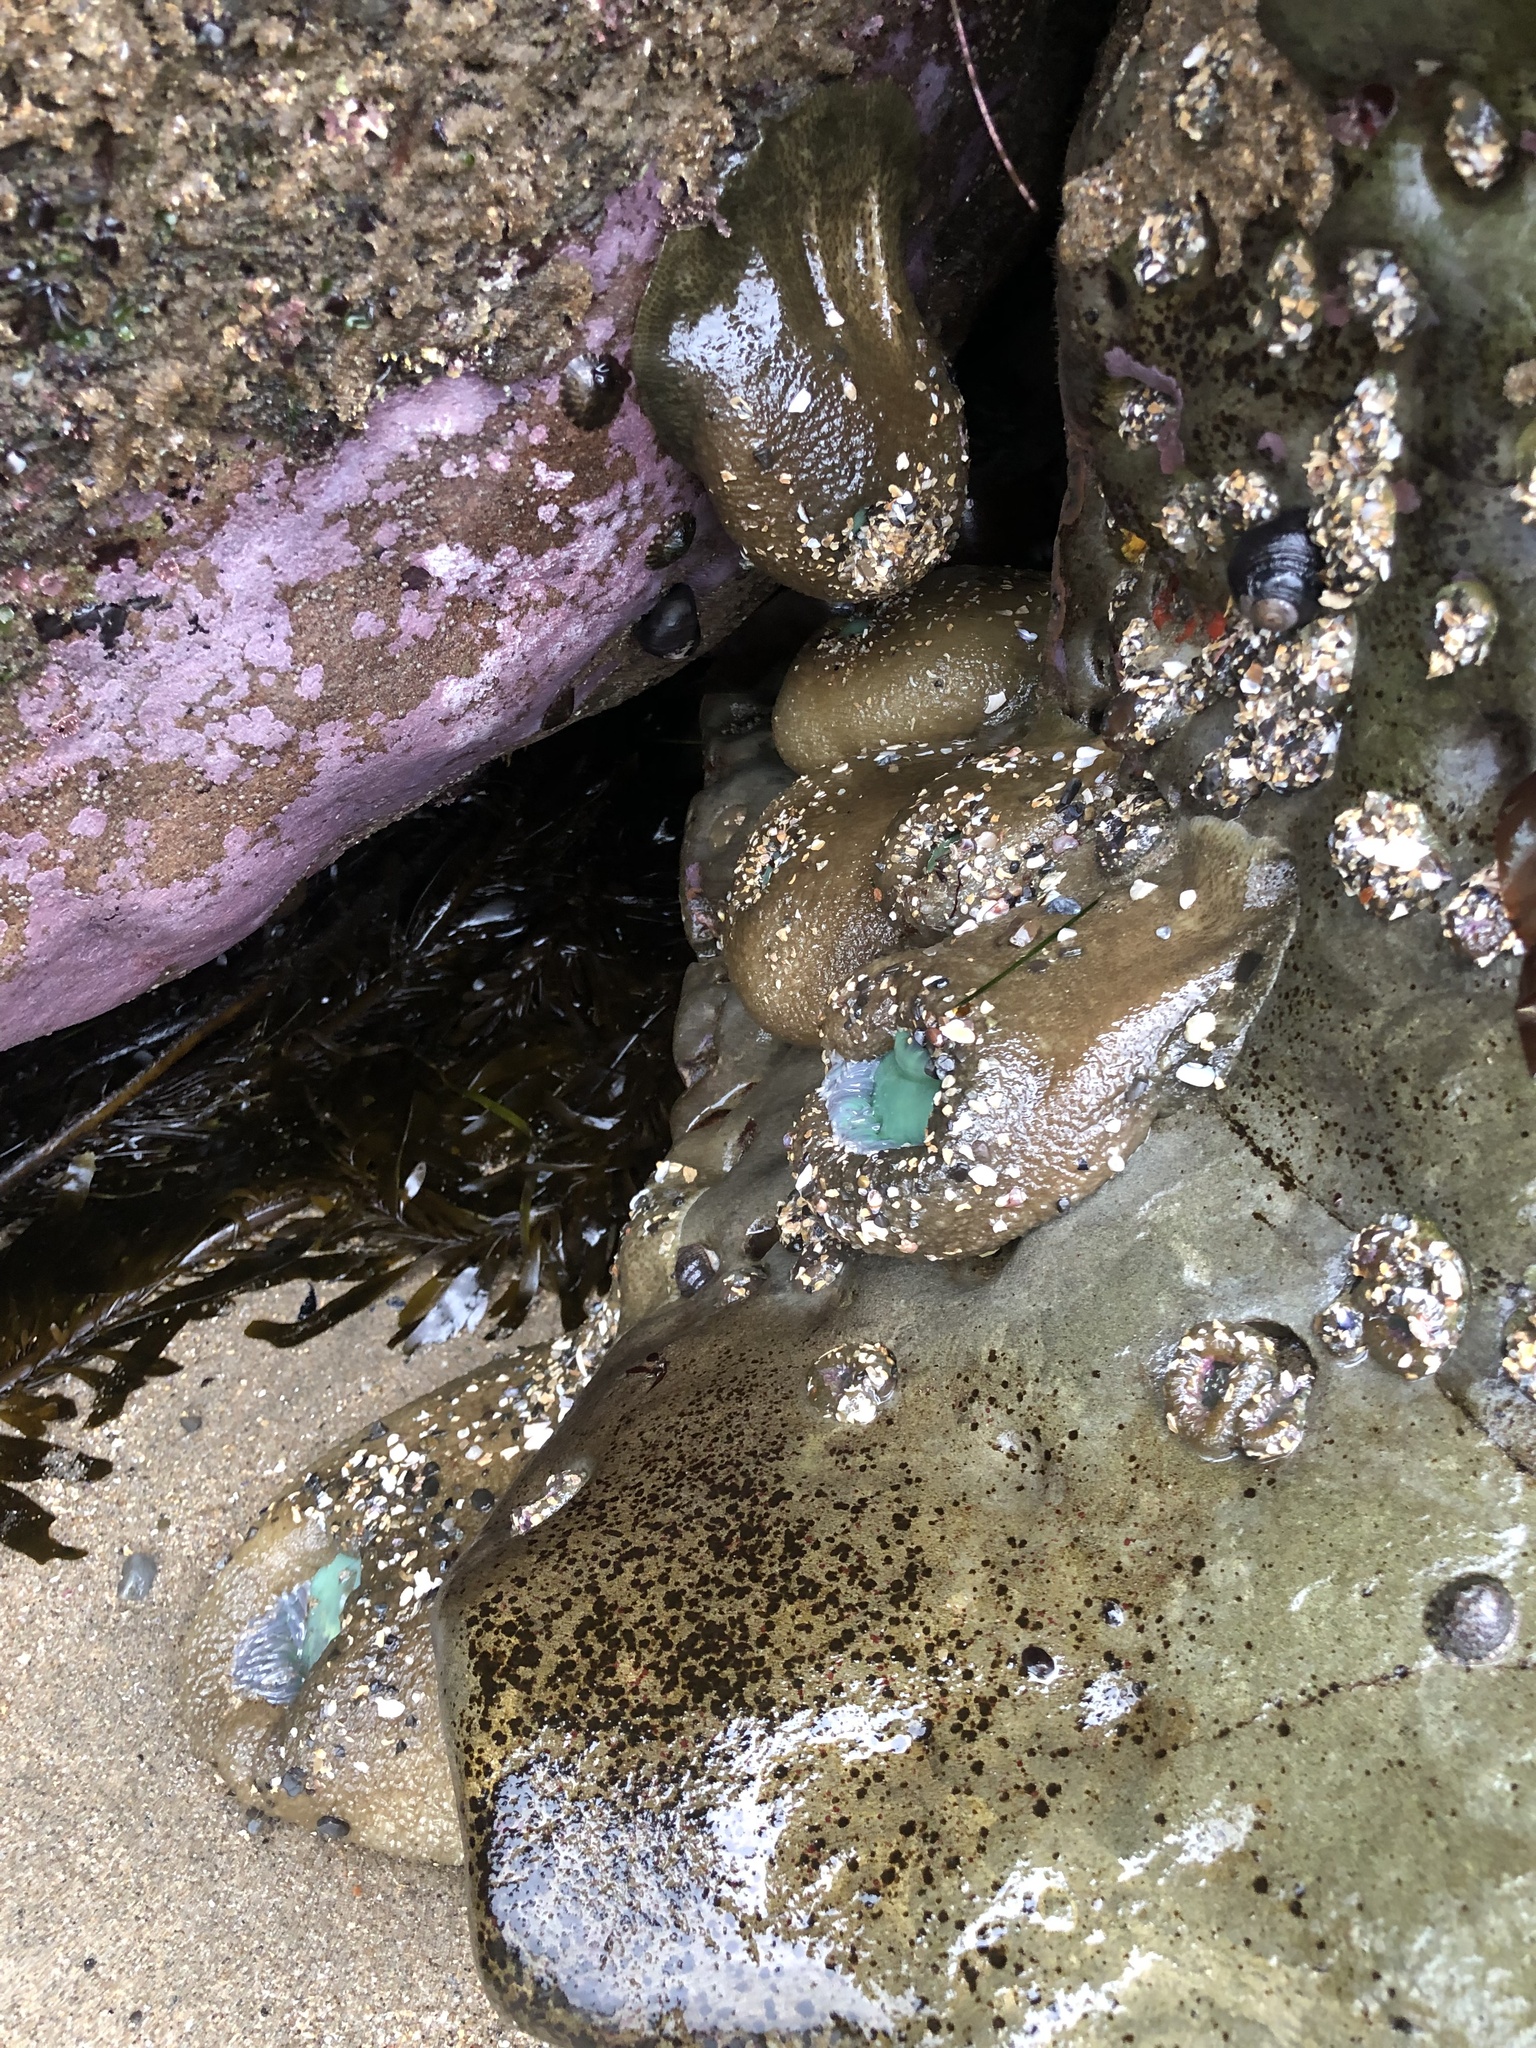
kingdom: Animalia
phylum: Cnidaria
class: Anthozoa
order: Actiniaria
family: Actiniidae
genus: Anthopleura
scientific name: Anthopleura xanthogrammica
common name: Giant green anemone
